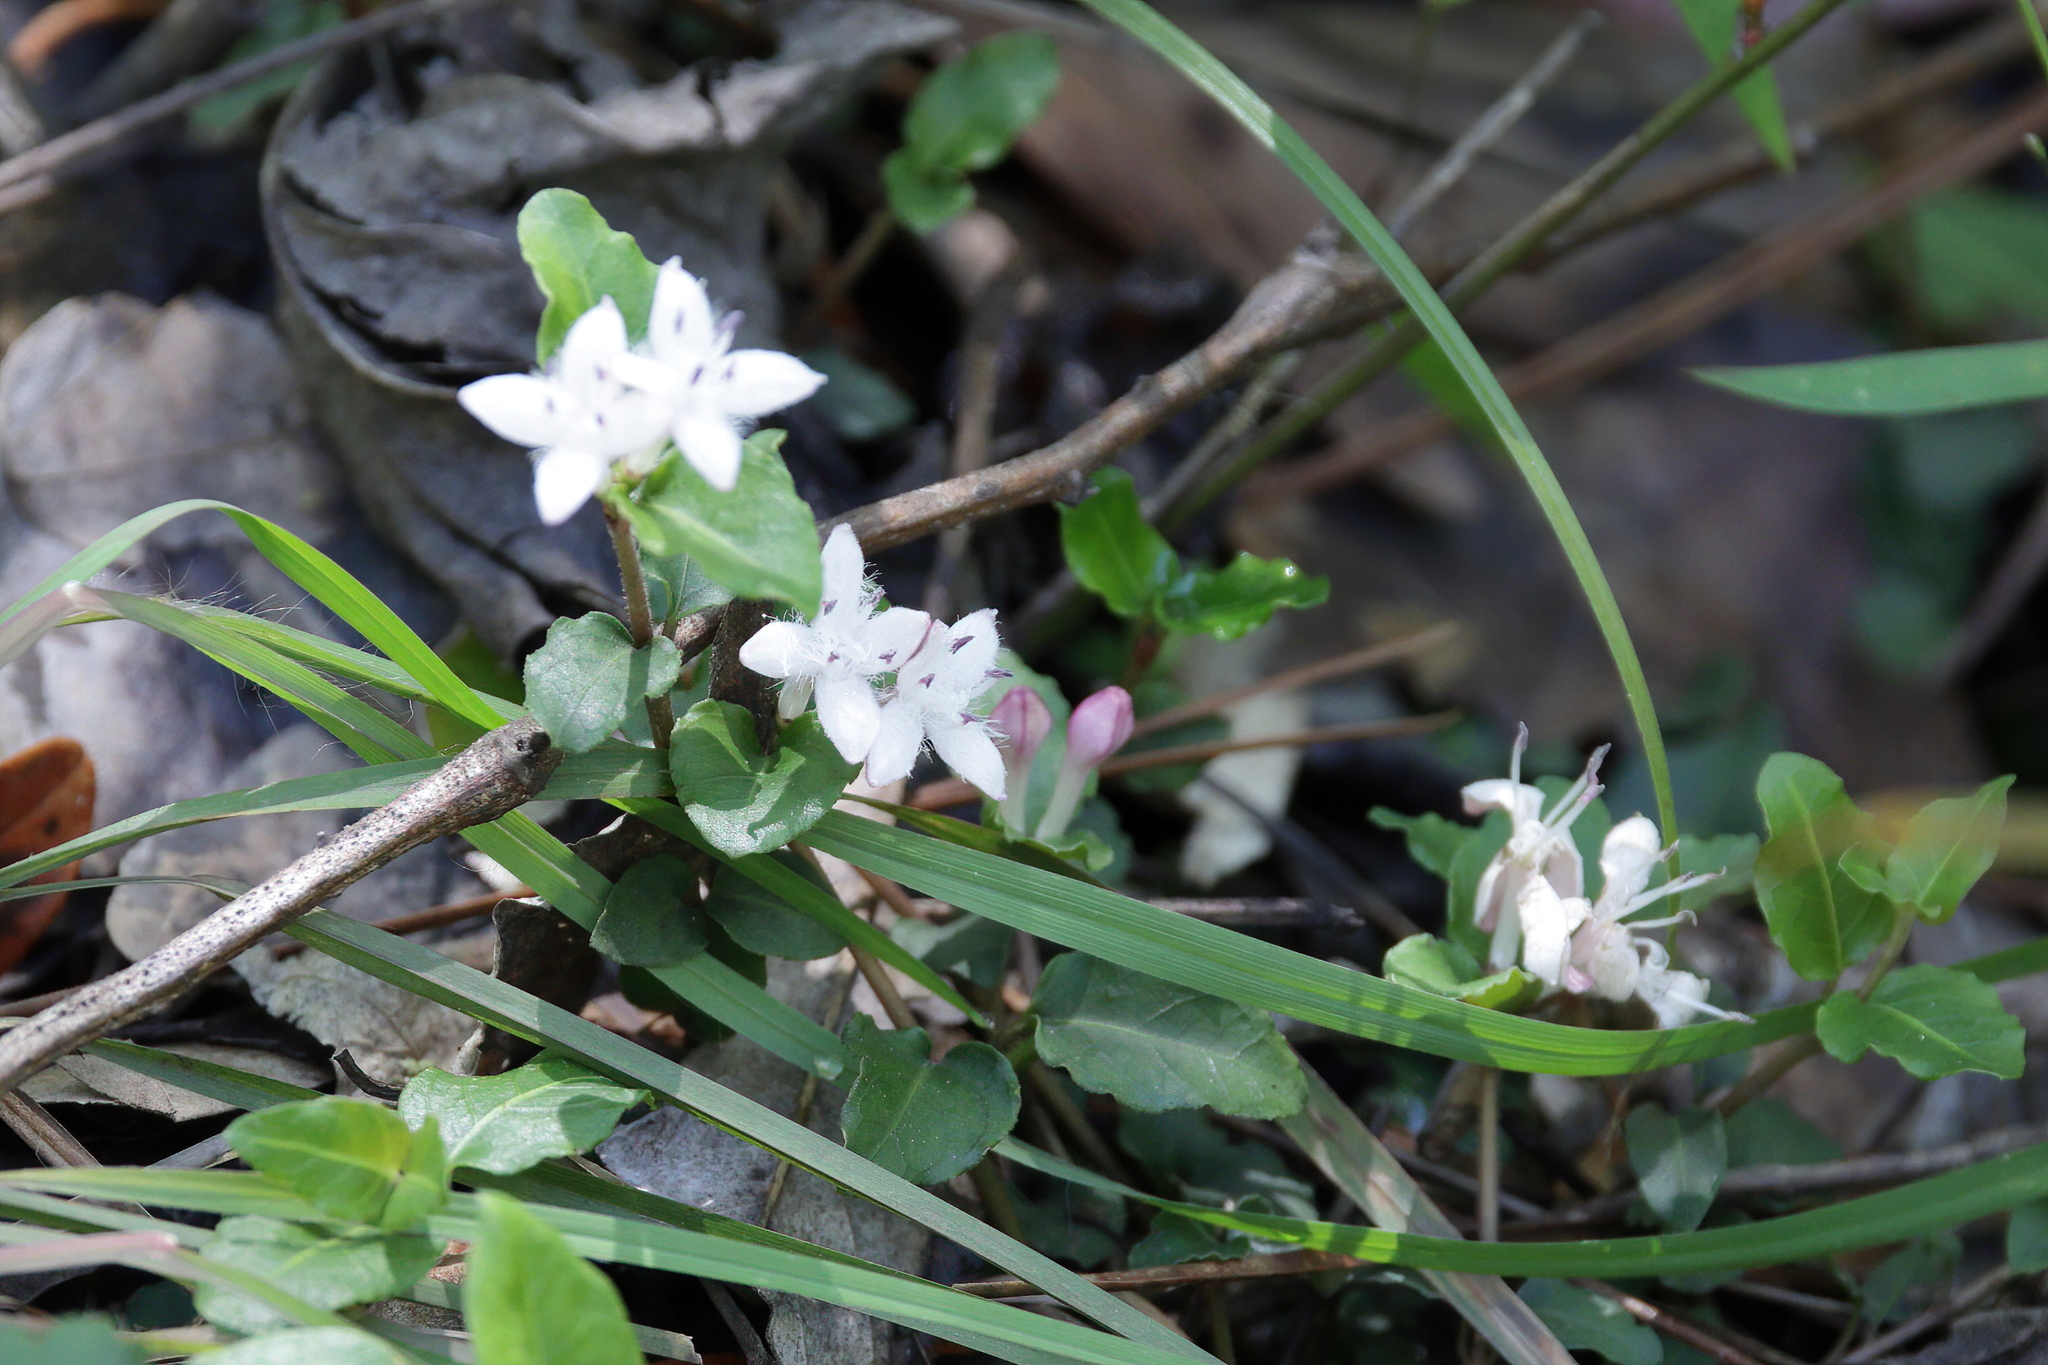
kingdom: Plantae
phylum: Tracheophyta
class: Magnoliopsida
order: Gentianales
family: Rubiaceae
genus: Mitchella
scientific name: Mitchella repens
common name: Partridge-berry
